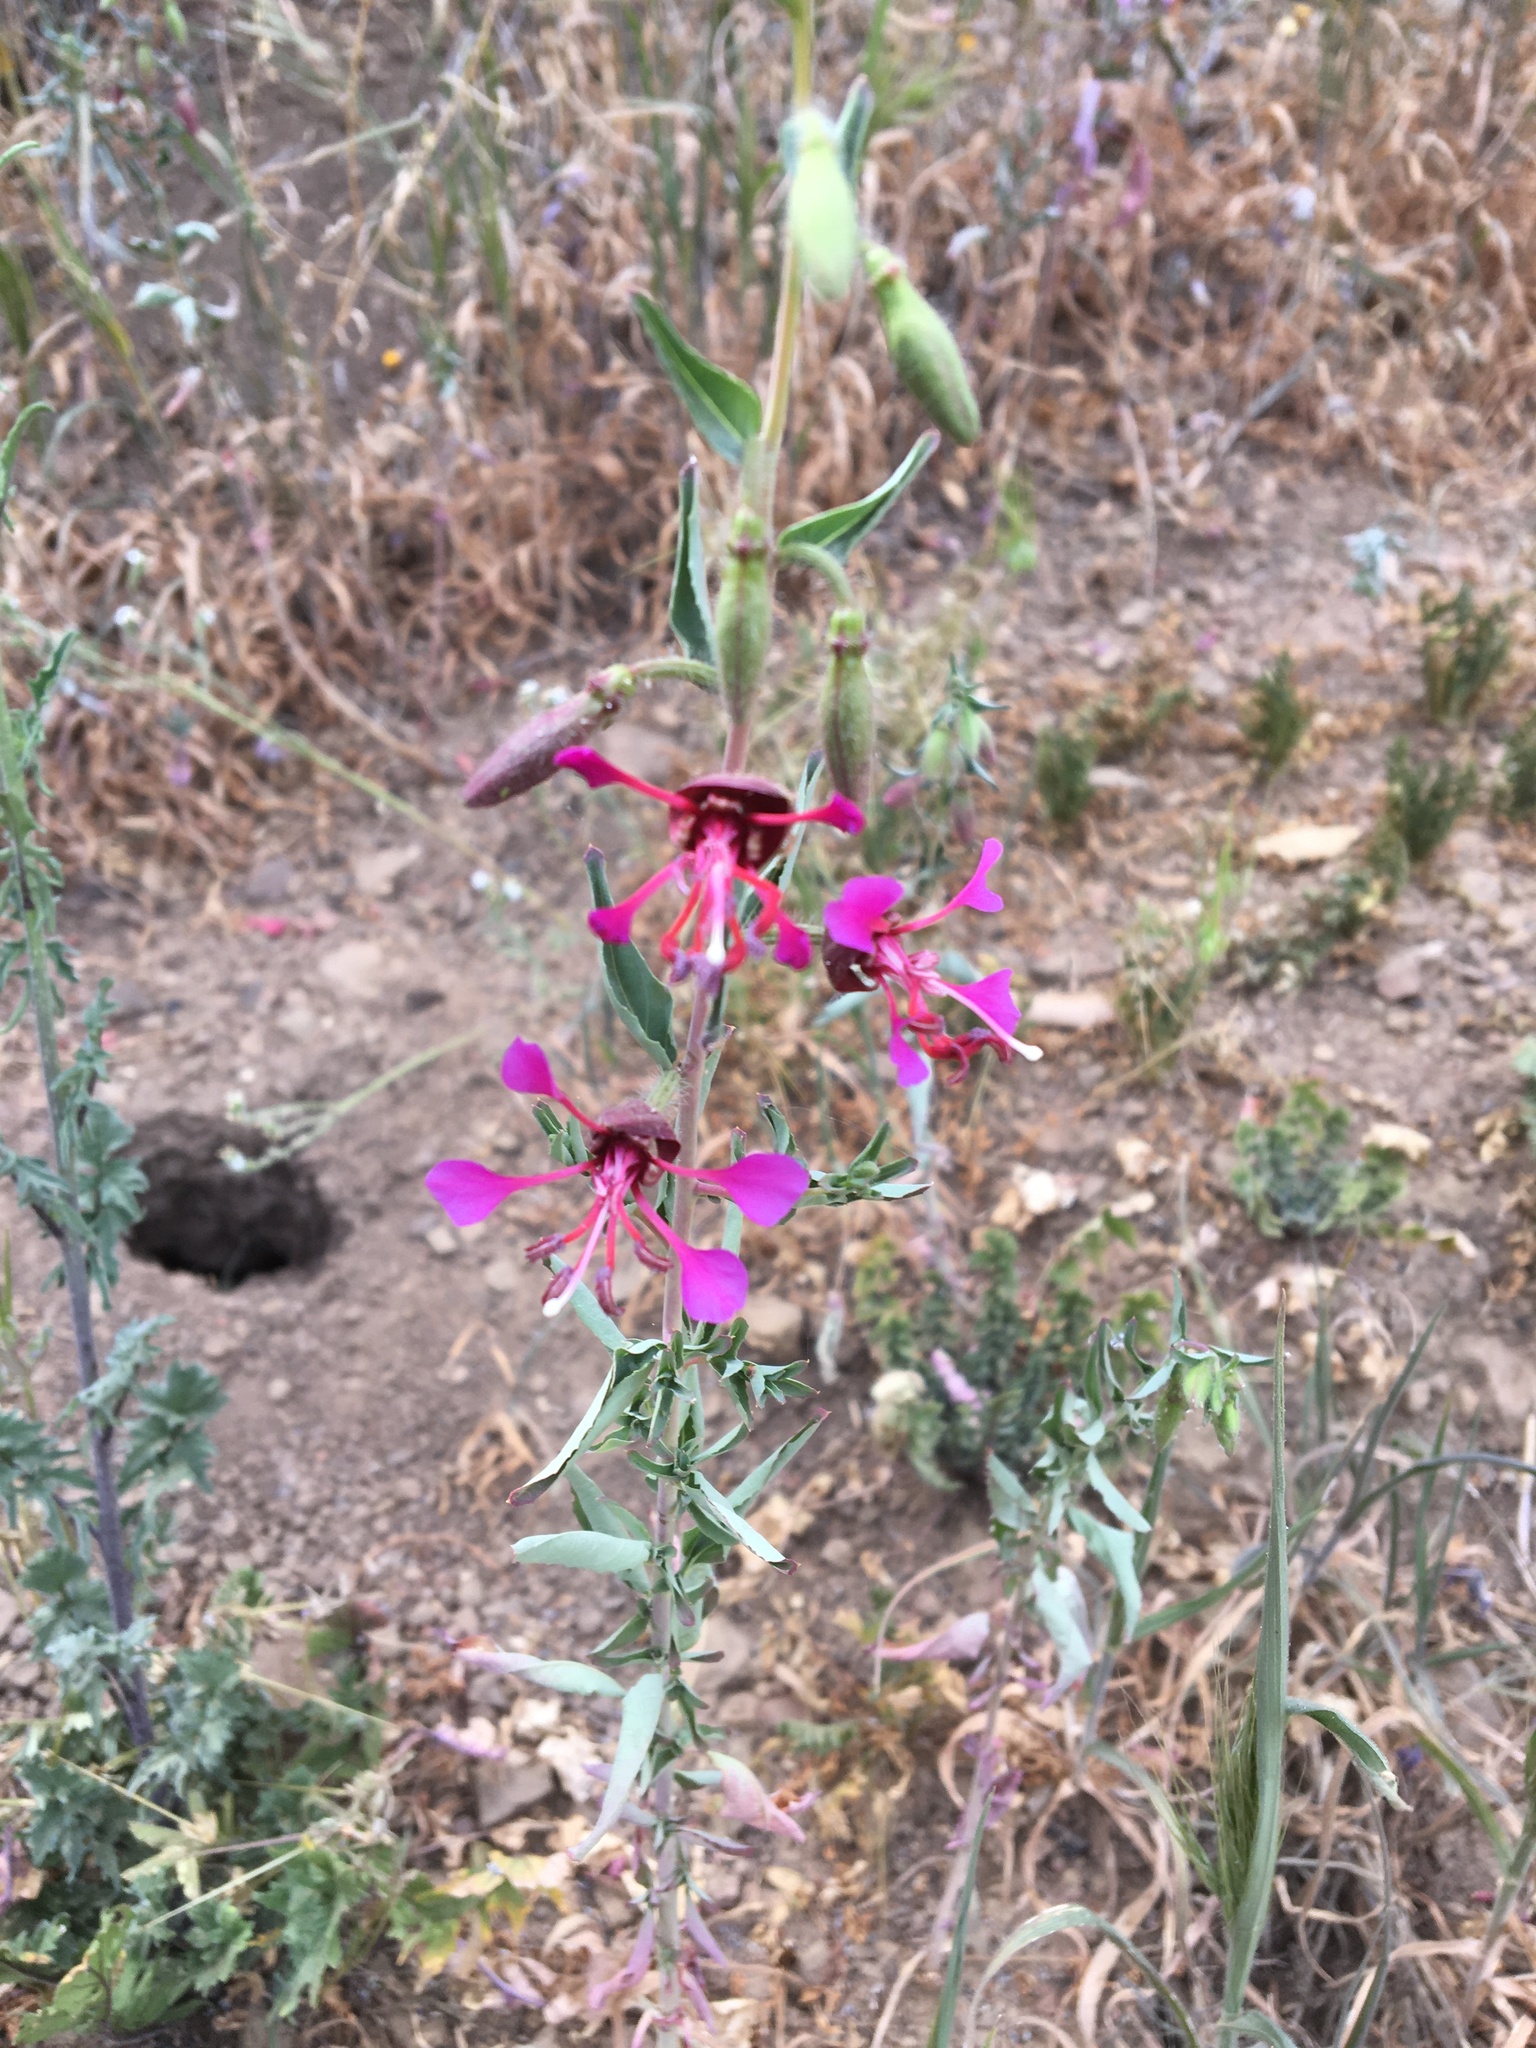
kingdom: Plantae
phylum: Tracheophyta
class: Magnoliopsida
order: Myrtales
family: Onagraceae
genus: Clarkia
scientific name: Clarkia unguiculata
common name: Clarkia
